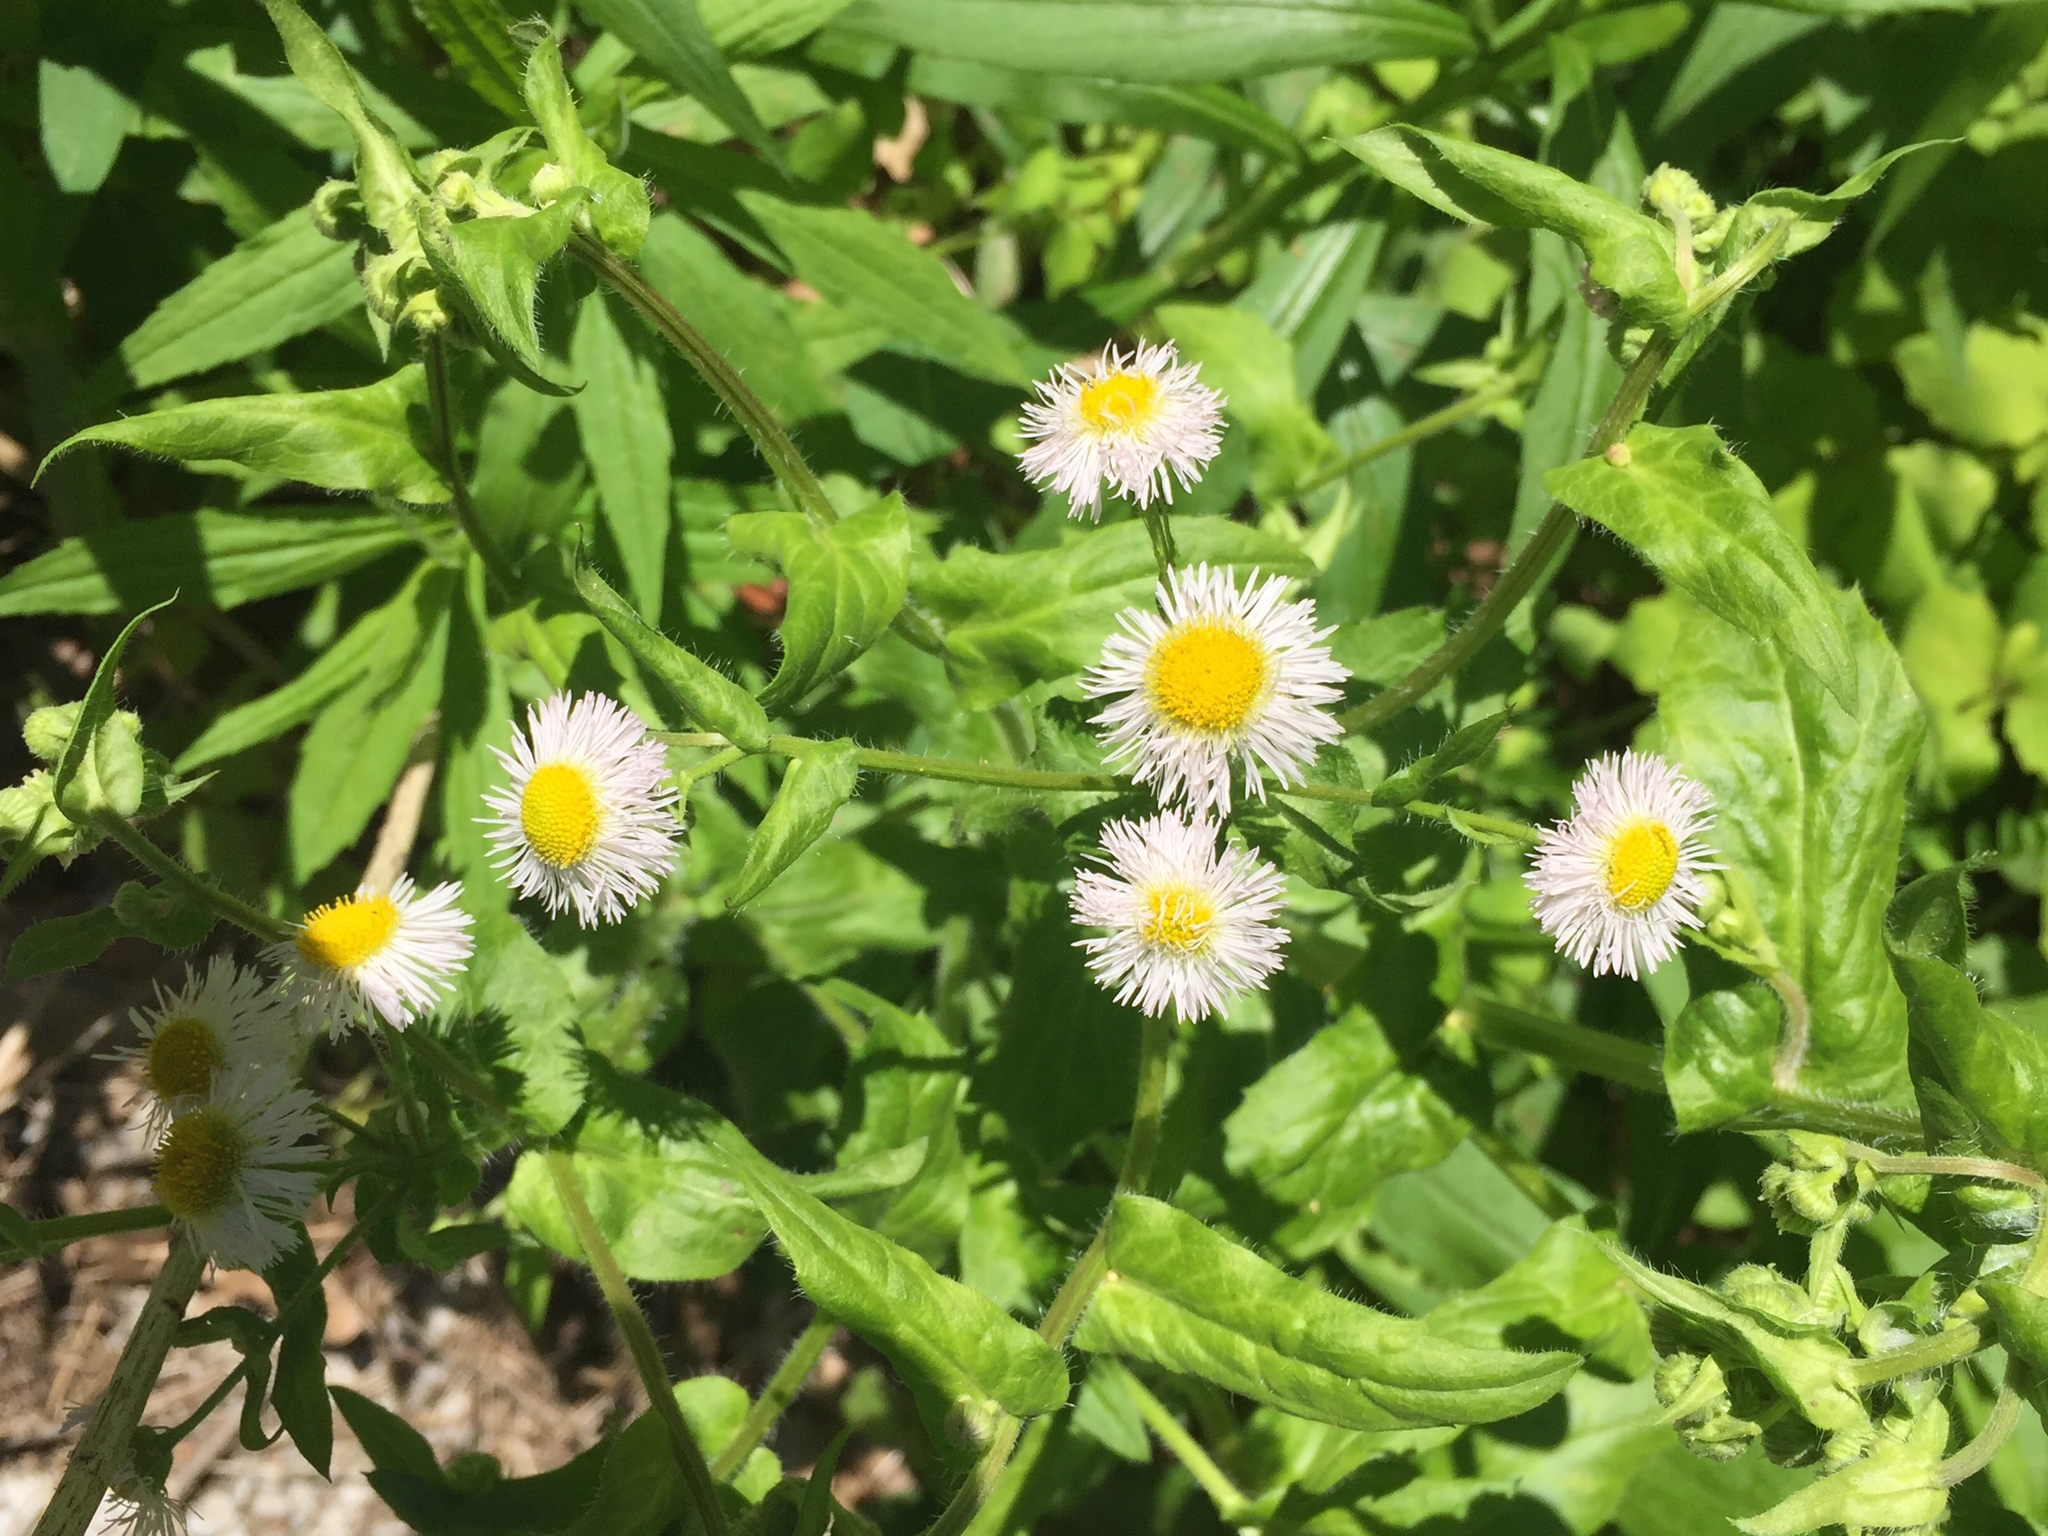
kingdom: Plantae
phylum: Tracheophyta
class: Magnoliopsida
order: Asterales
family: Asteraceae
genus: Erigeron
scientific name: Erigeron philadelphicus
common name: Robin's-plantain
